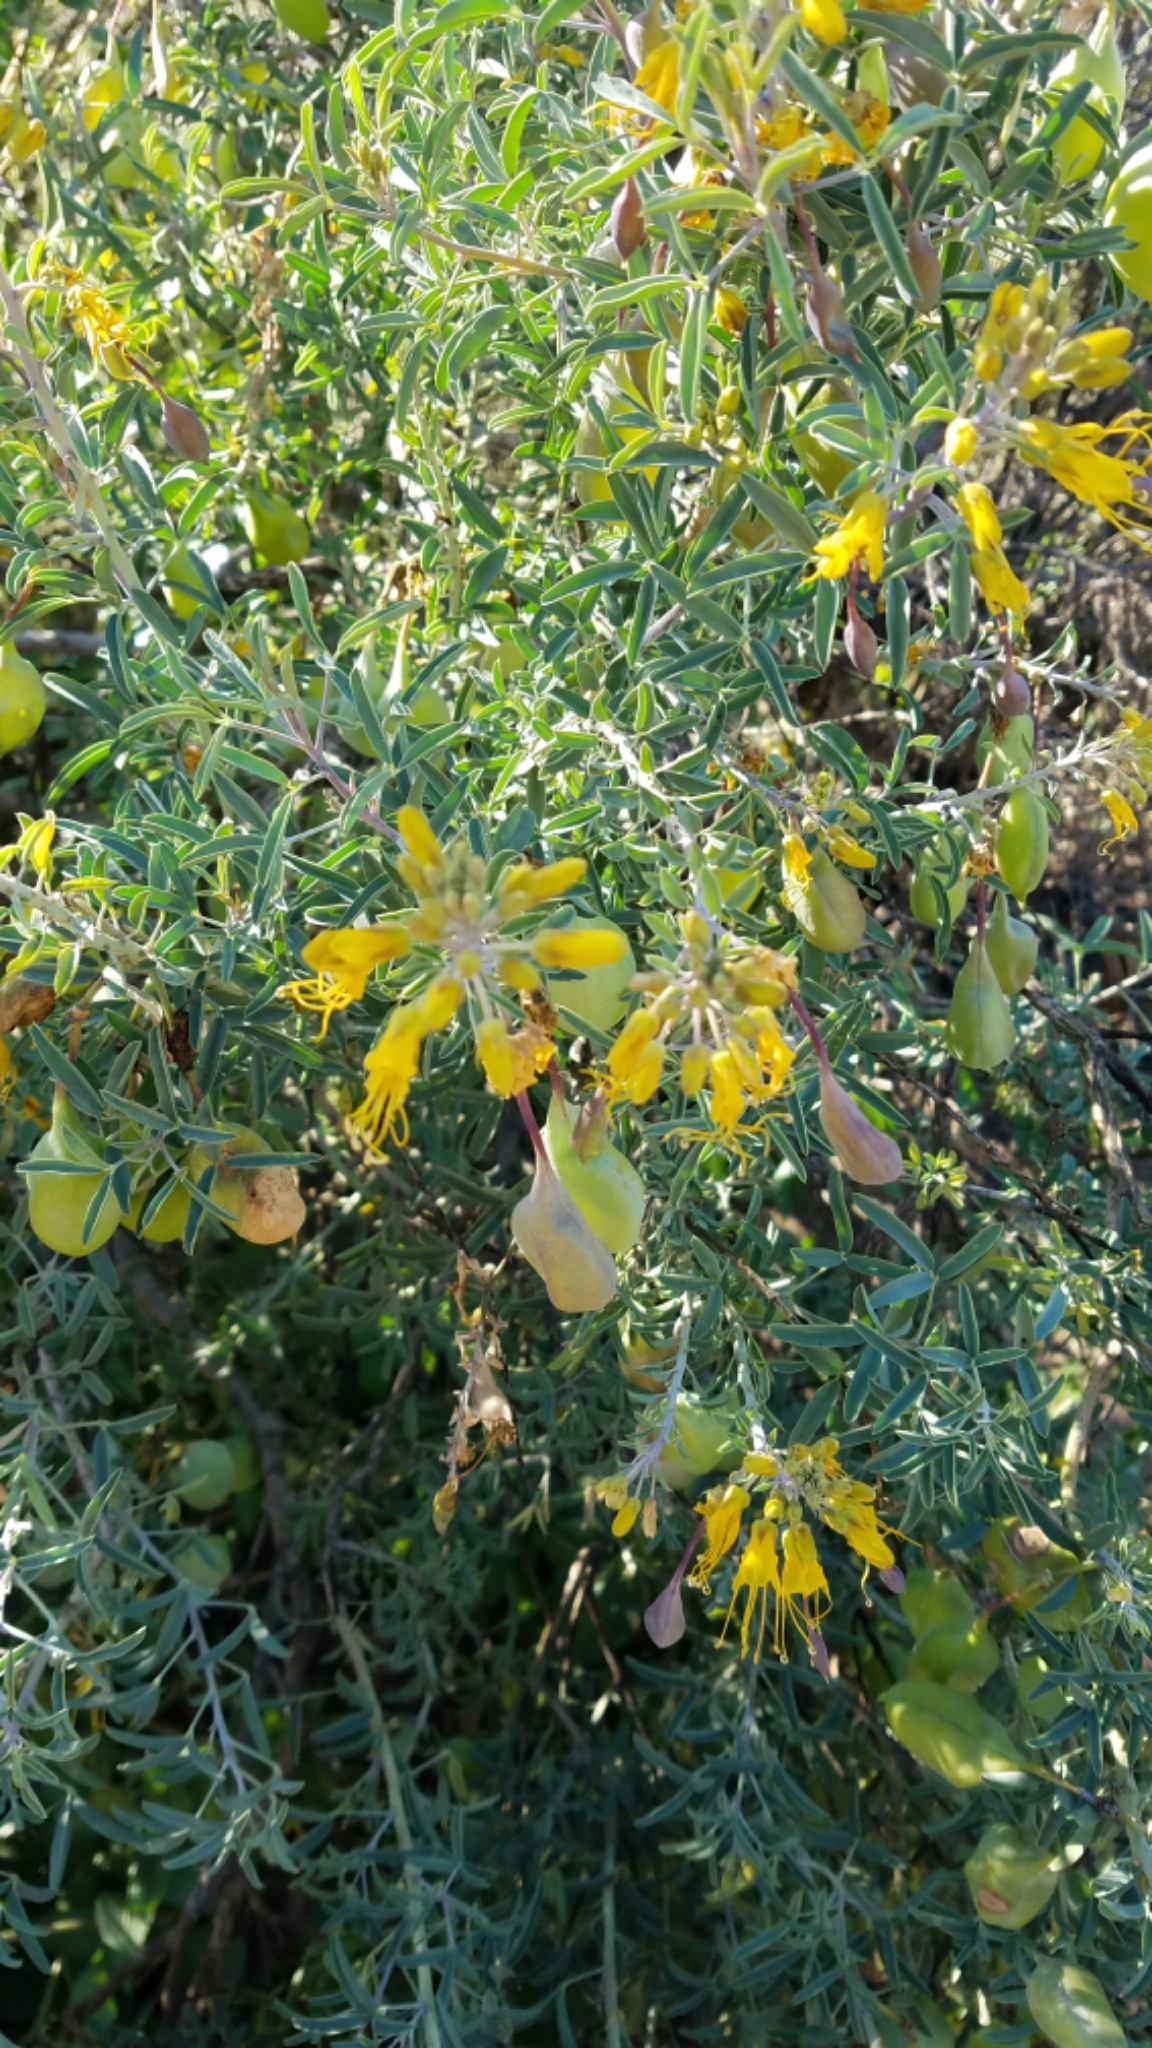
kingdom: Plantae
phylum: Tracheophyta
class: Magnoliopsida
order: Brassicales
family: Cleomaceae
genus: Cleomella
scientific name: Cleomella arborea
